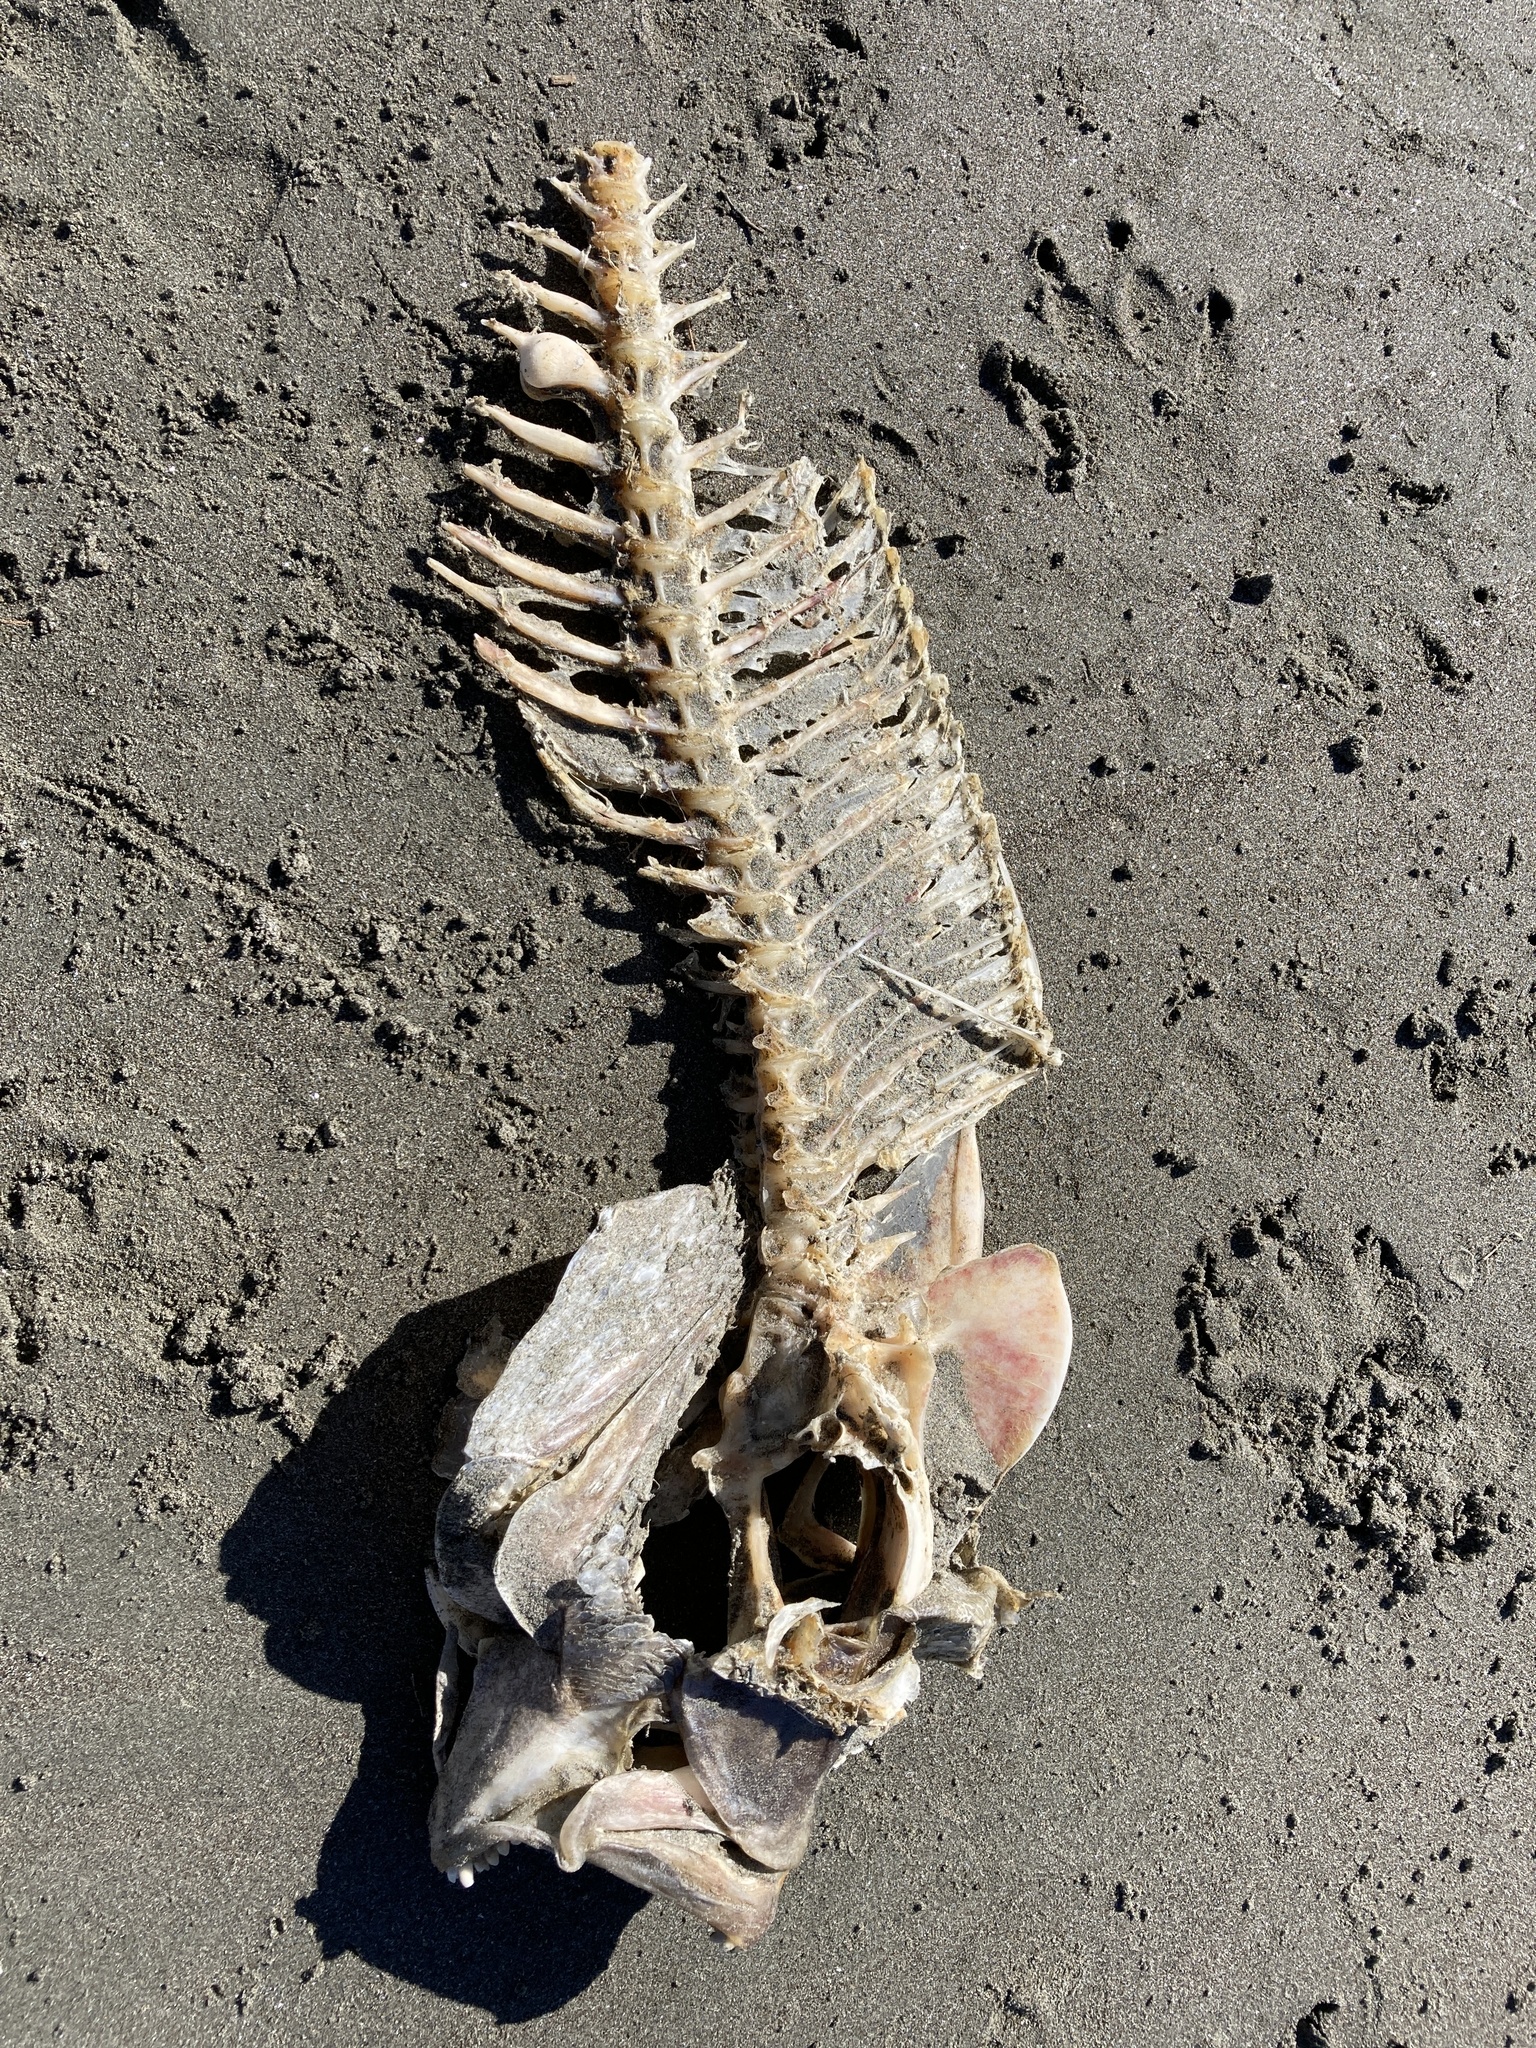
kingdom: Animalia
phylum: Chordata
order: Perciformes
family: Sparidae
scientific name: Sparidae
